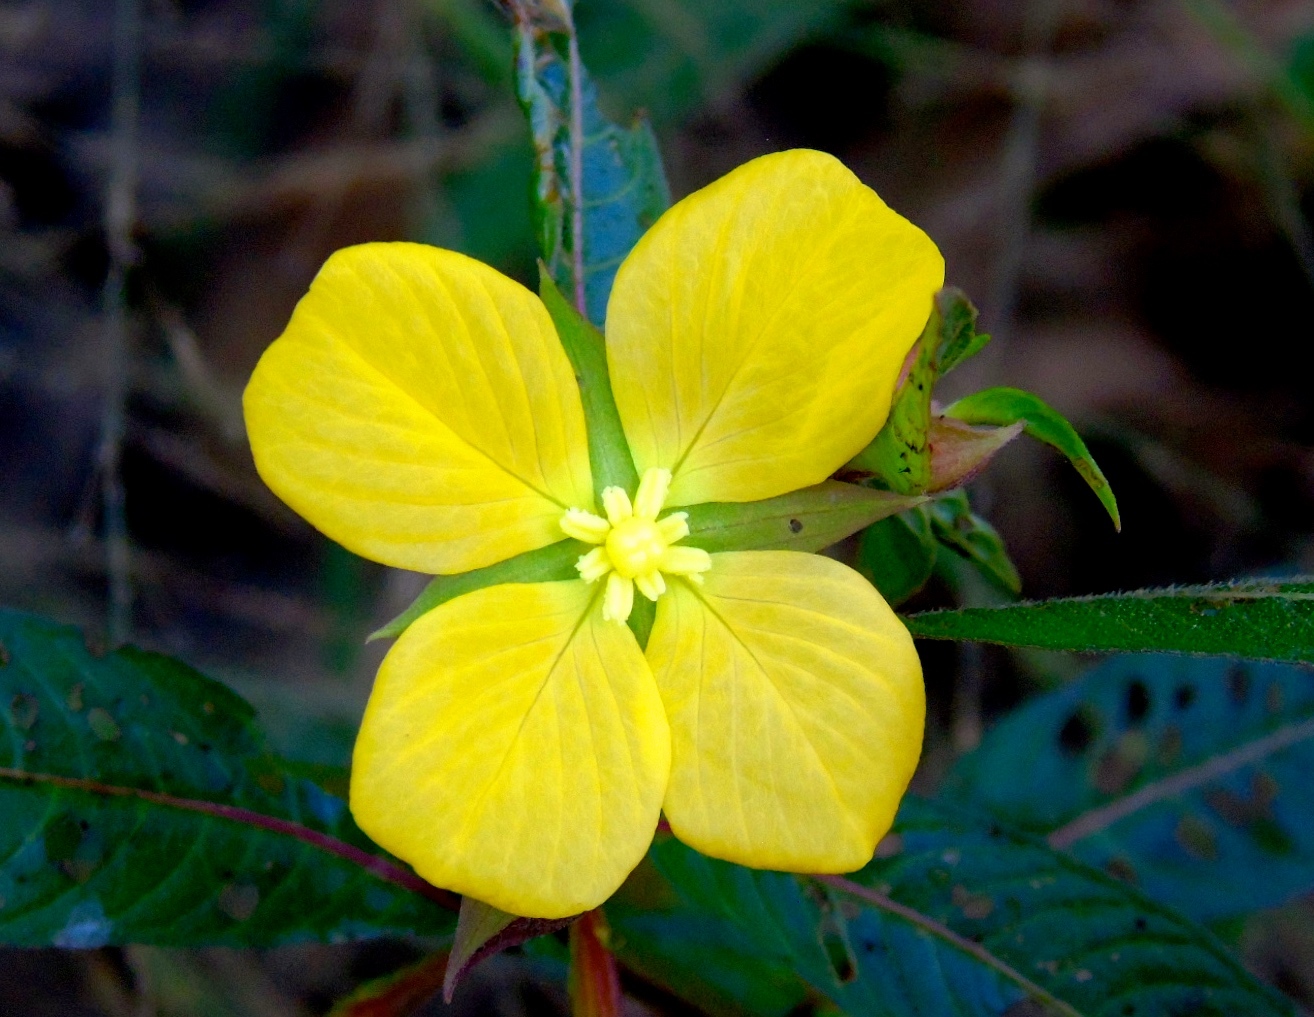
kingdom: Plantae
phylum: Tracheophyta
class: Magnoliopsida
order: Myrtales
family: Onagraceae
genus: Ludwigia
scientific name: Ludwigia octovalvis
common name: Water-primrose
